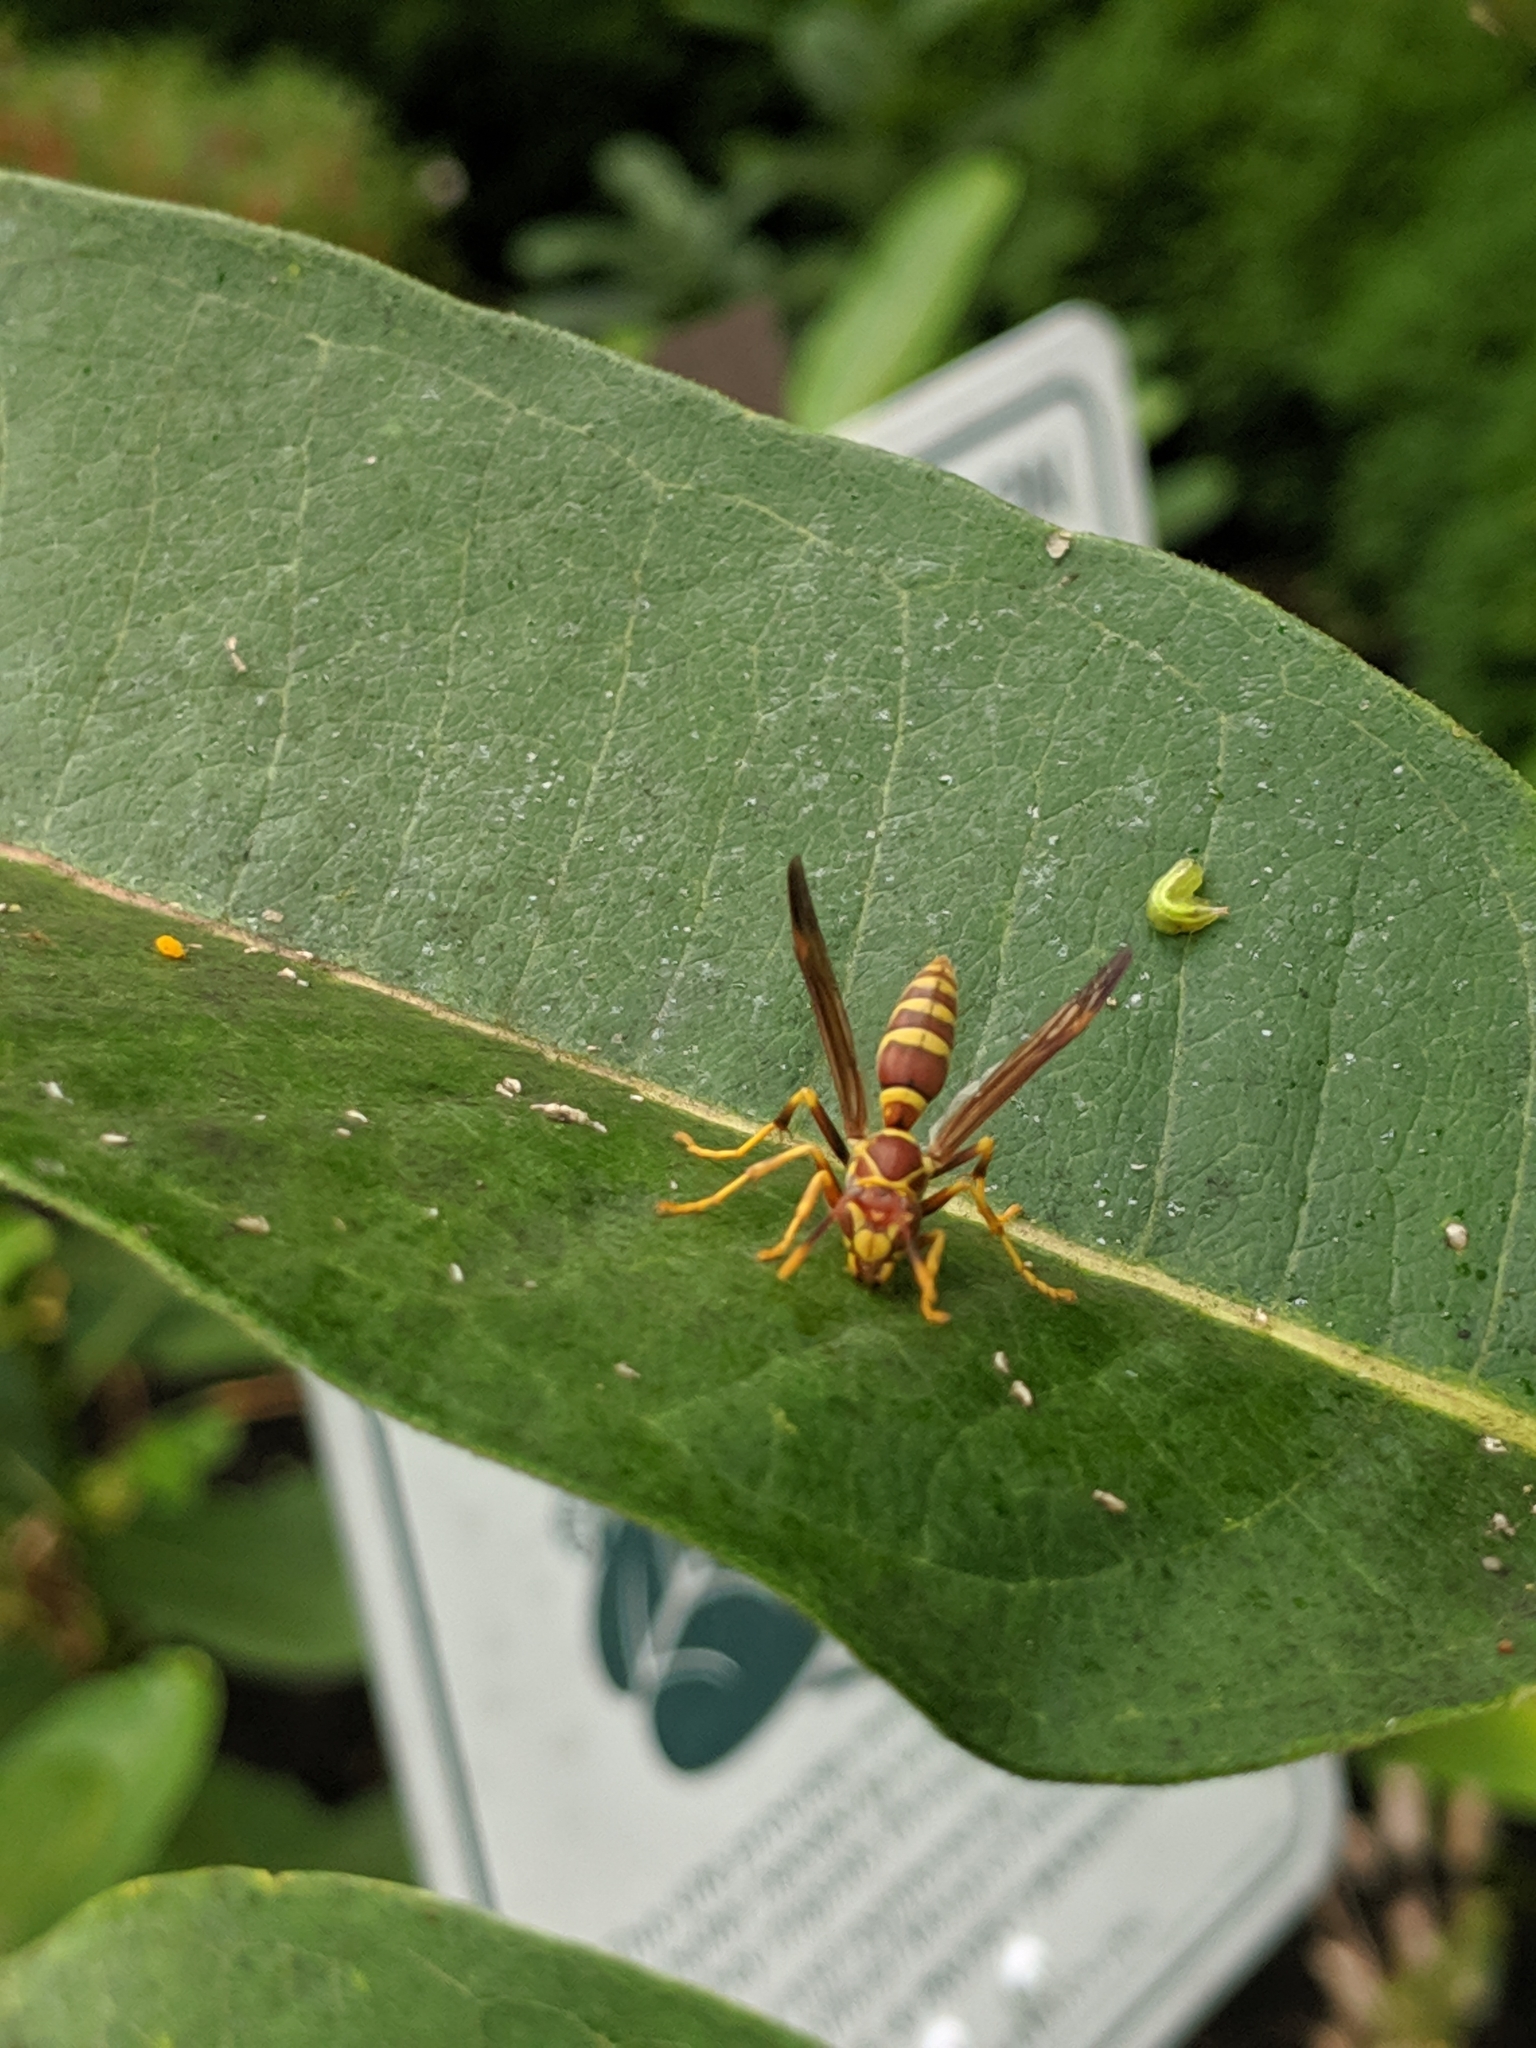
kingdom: Animalia
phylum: Arthropoda
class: Insecta
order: Hymenoptera
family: Eumenidae
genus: Polistes
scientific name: Polistes exclamans
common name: Paper wasp
